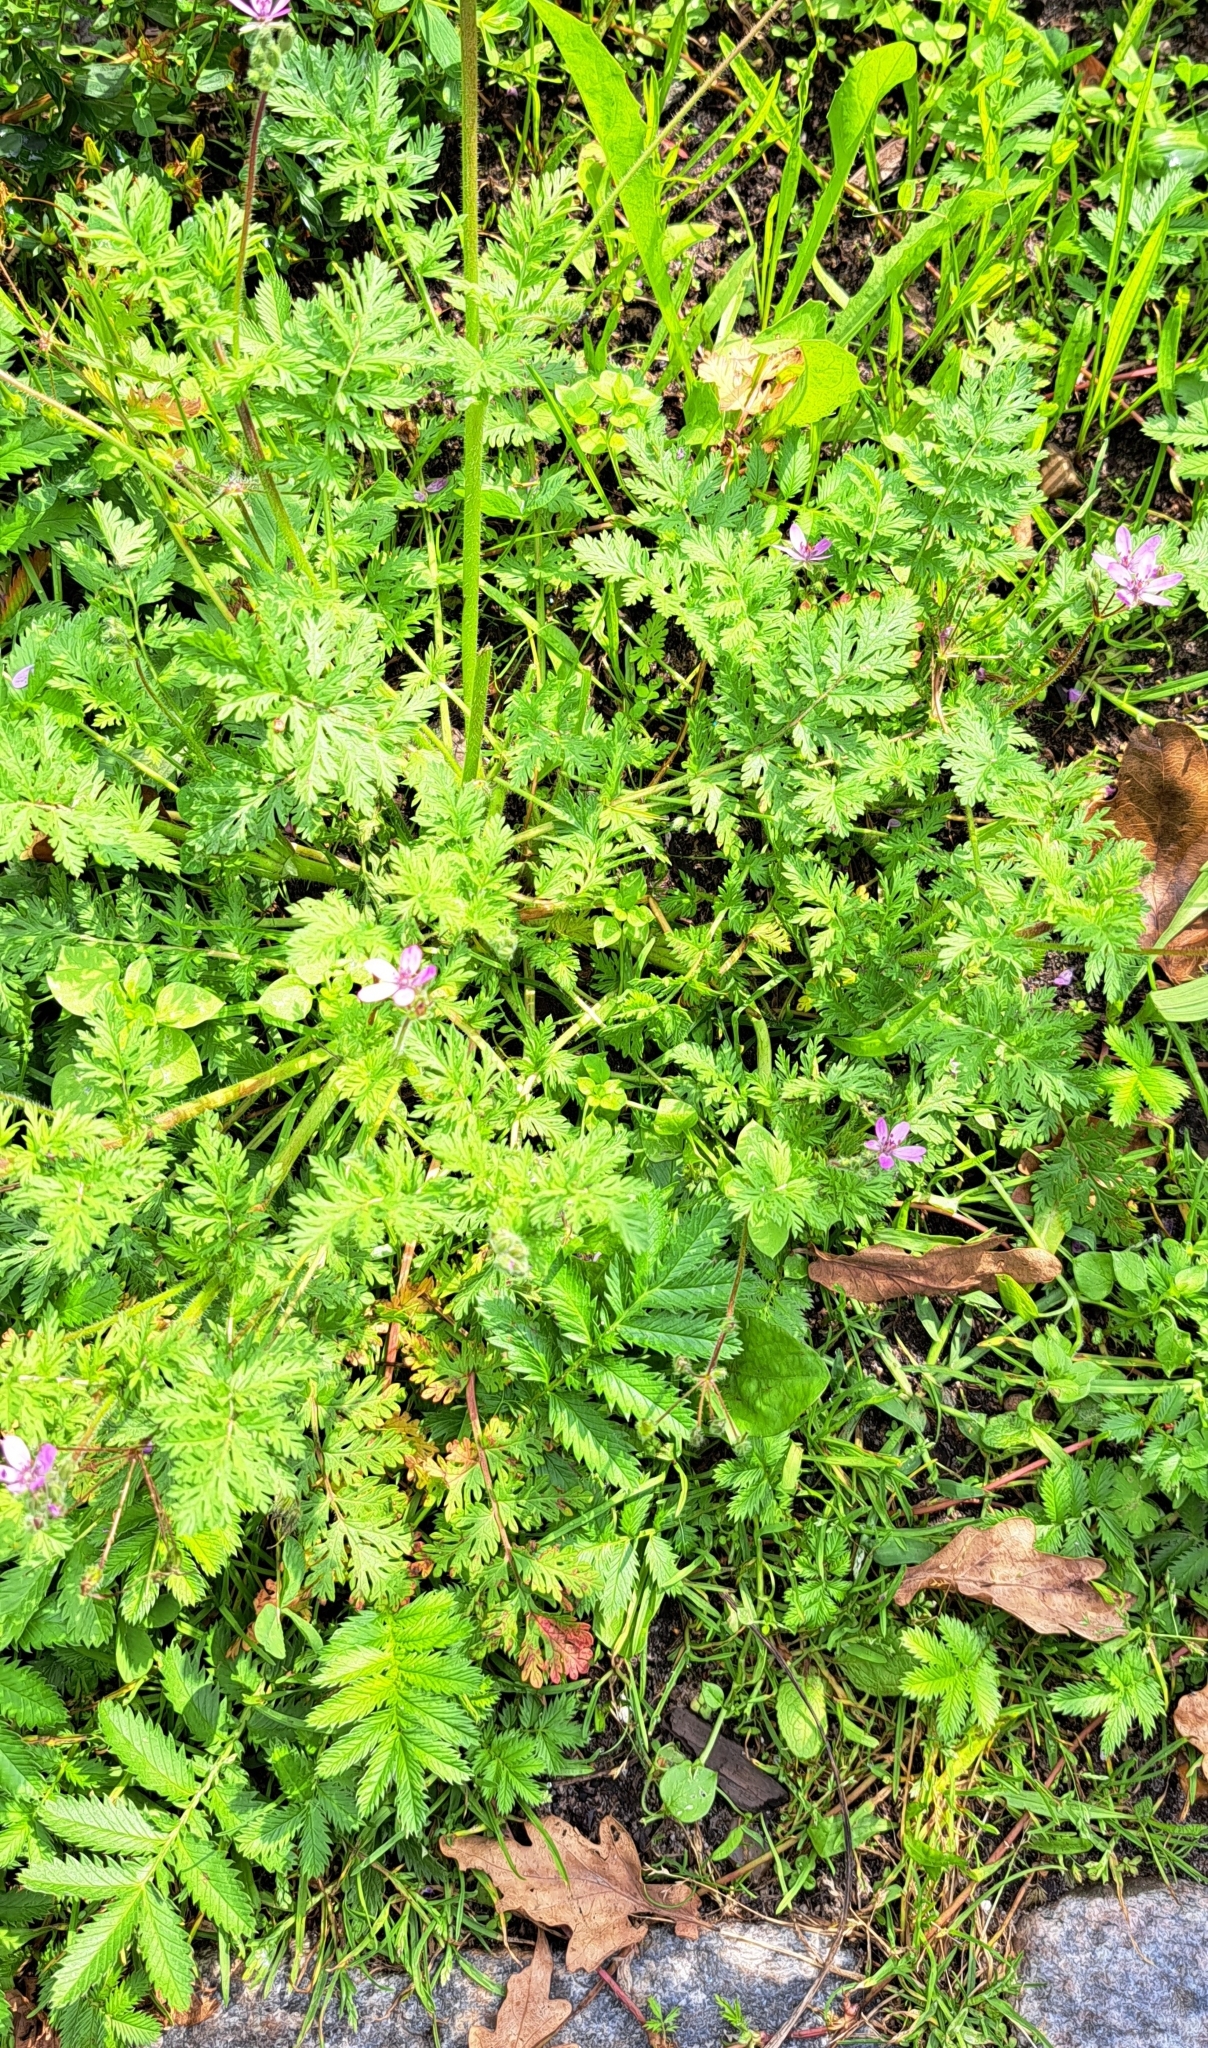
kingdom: Plantae
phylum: Tracheophyta
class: Magnoliopsida
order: Geraniales
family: Geraniaceae
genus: Erodium
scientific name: Erodium cicutarium
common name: Common stork's-bill
